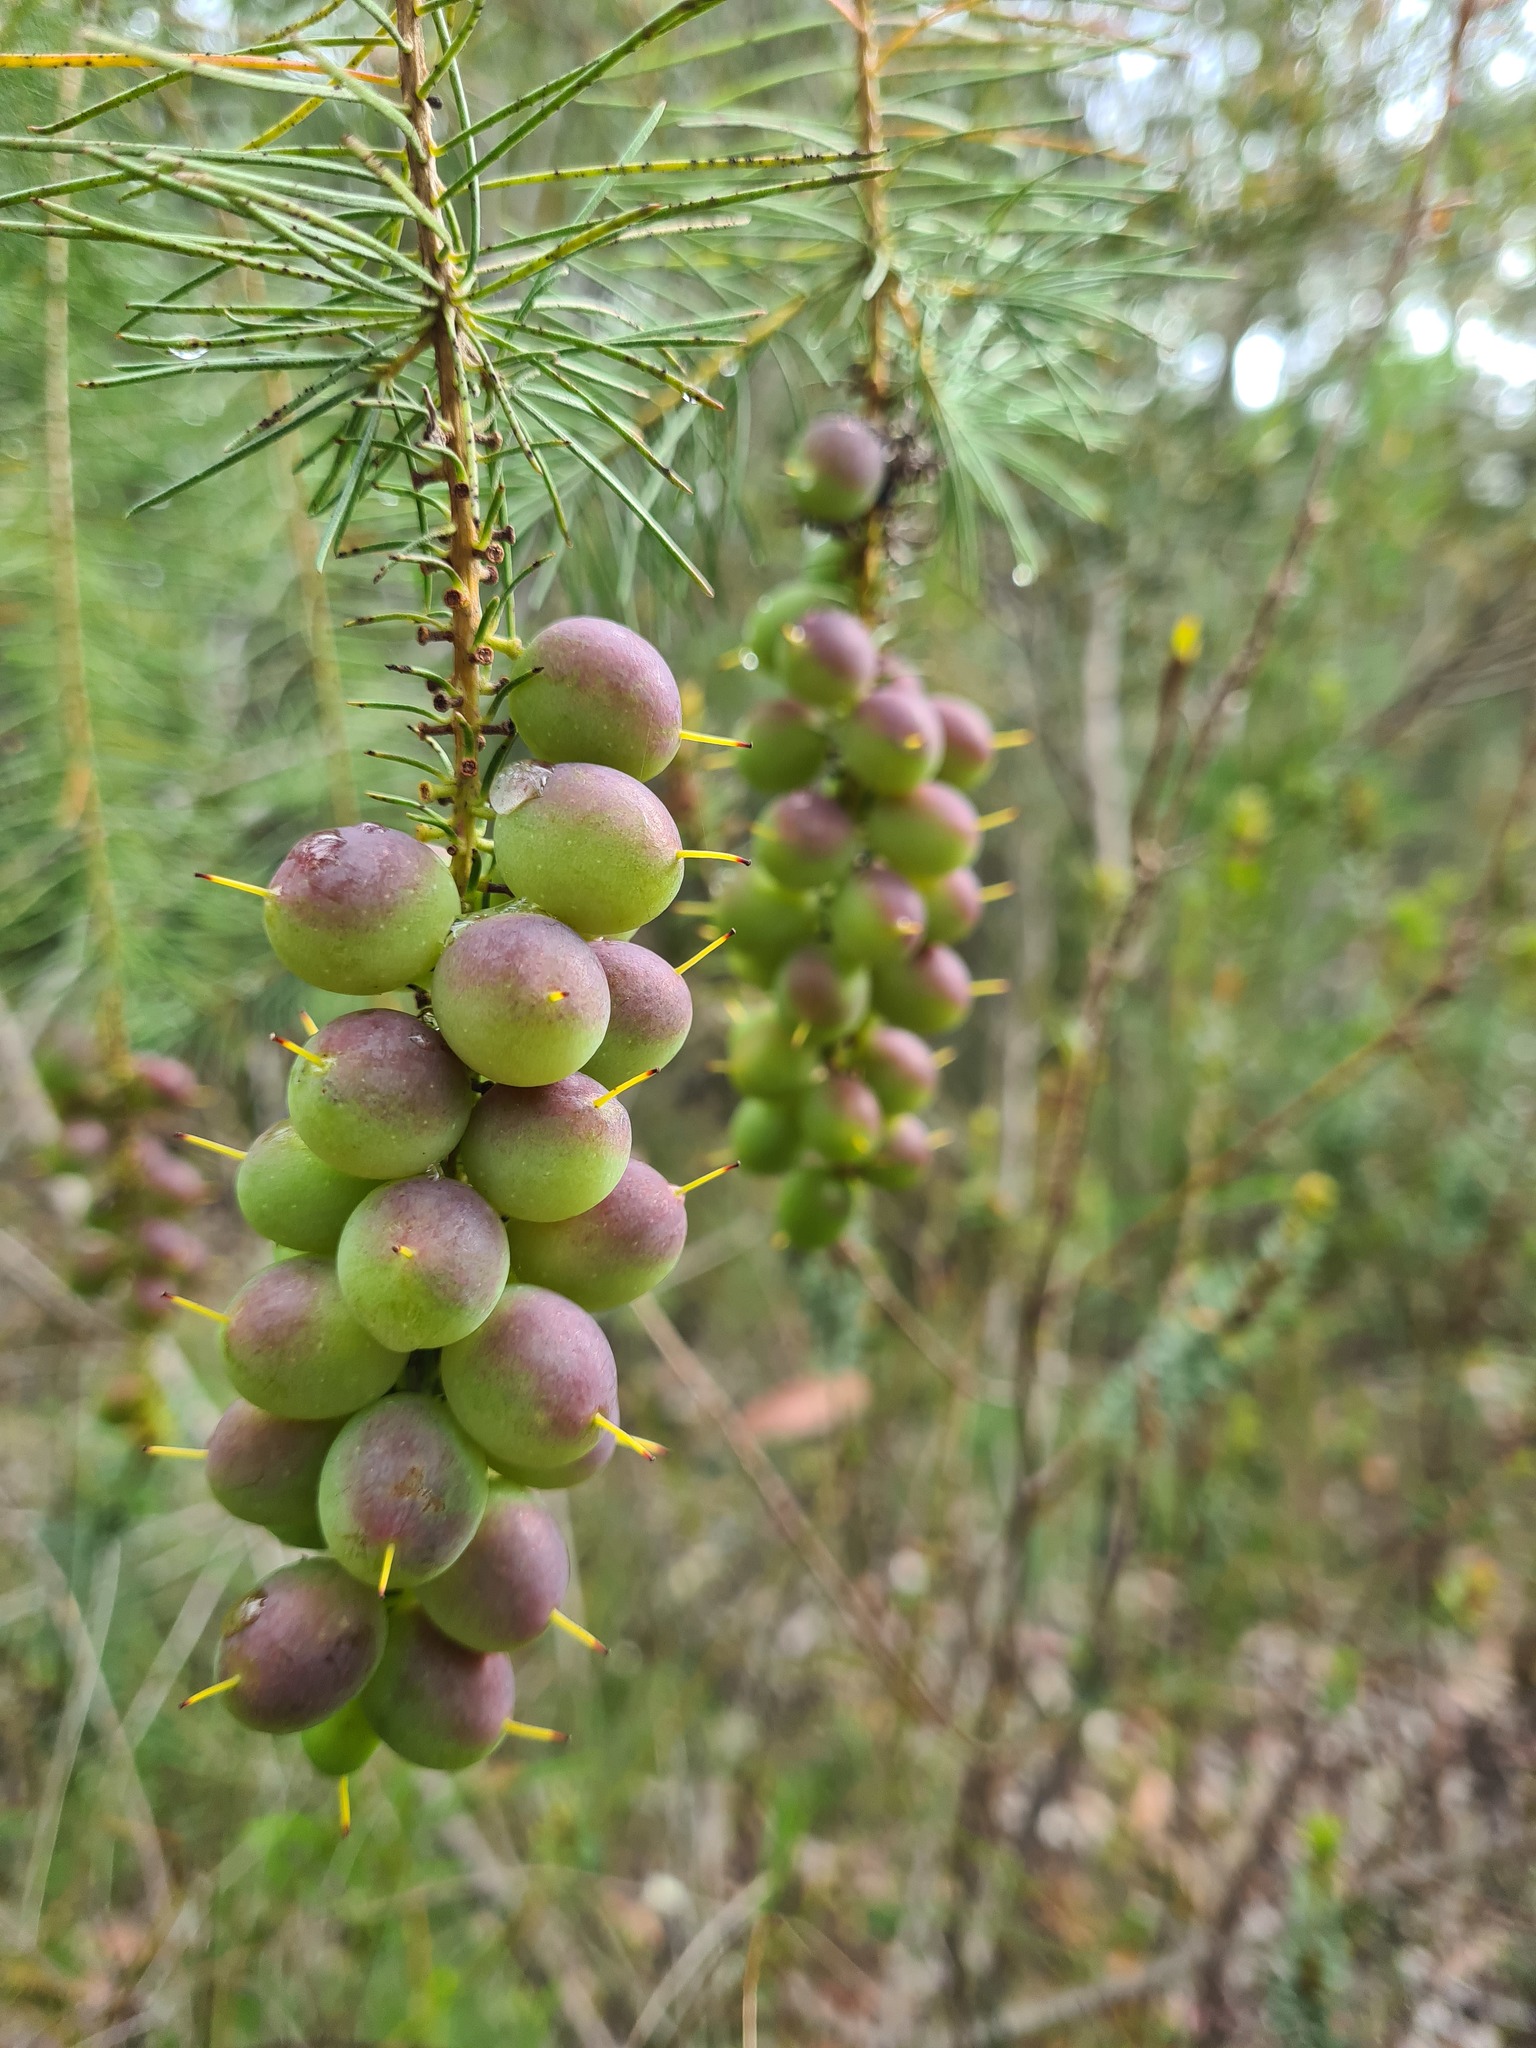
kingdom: Plantae
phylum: Tracheophyta
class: Magnoliopsida
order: Proteales
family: Proteaceae
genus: Persoonia
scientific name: Persoonia pinifolia
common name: Pine-leaf geebung
